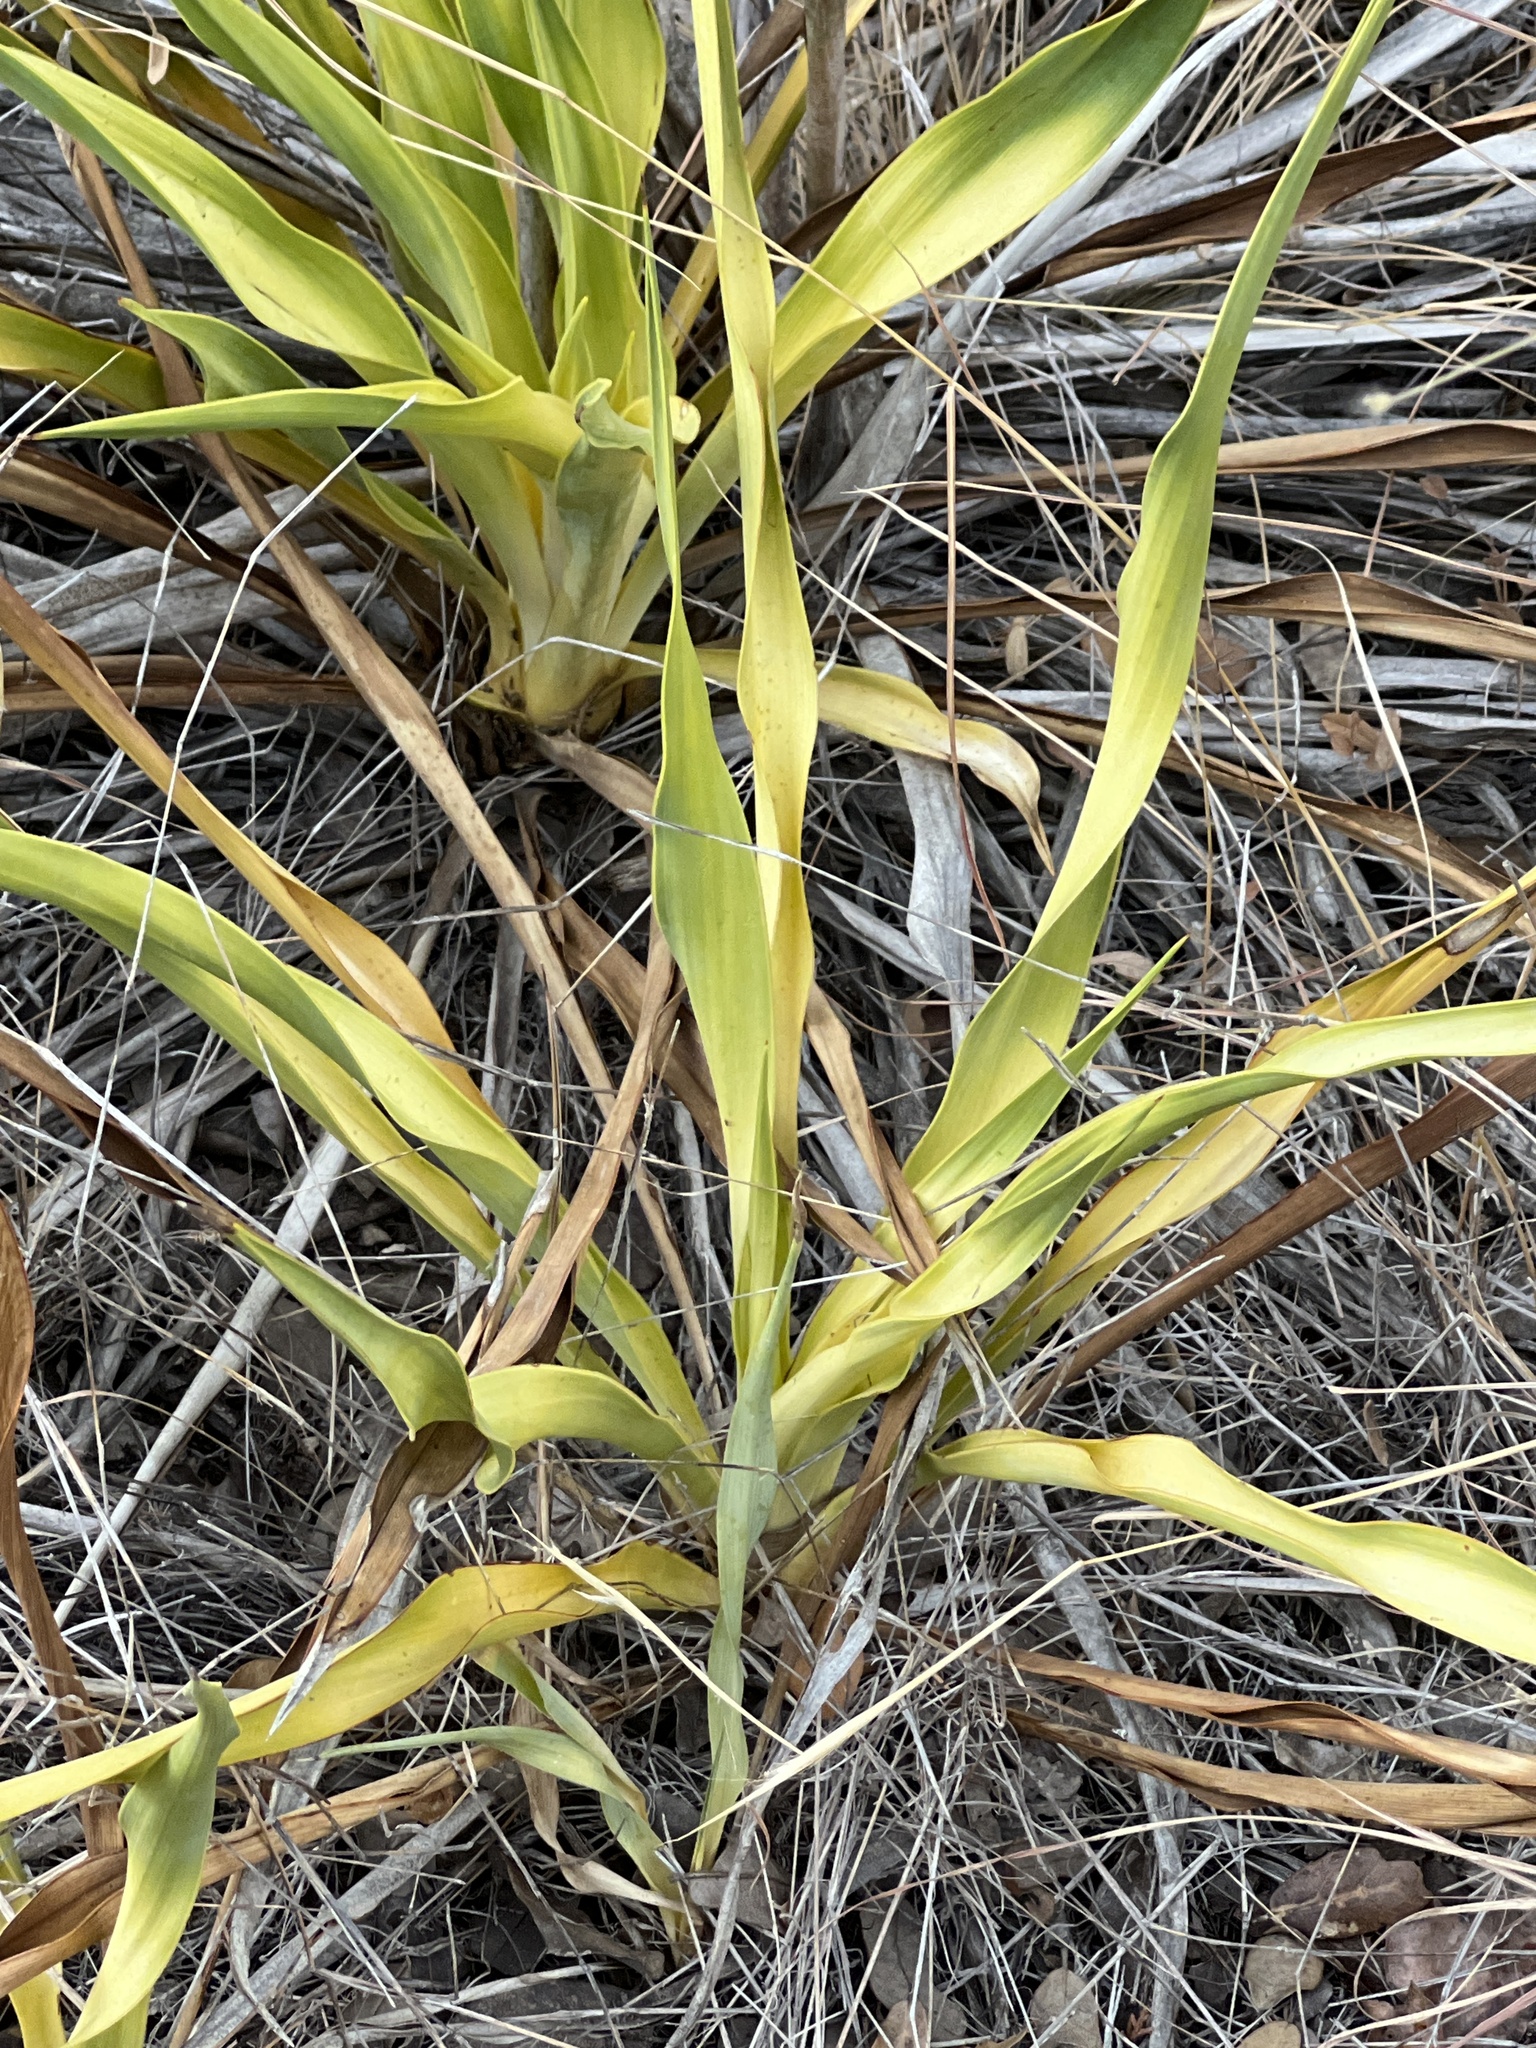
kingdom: Plantae
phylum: Tracheophyta
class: Liliopsida
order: Asparagales
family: Asparagaceae
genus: Yucca
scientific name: Yucca rupicola
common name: Twisted-leaf spanish-dagger
